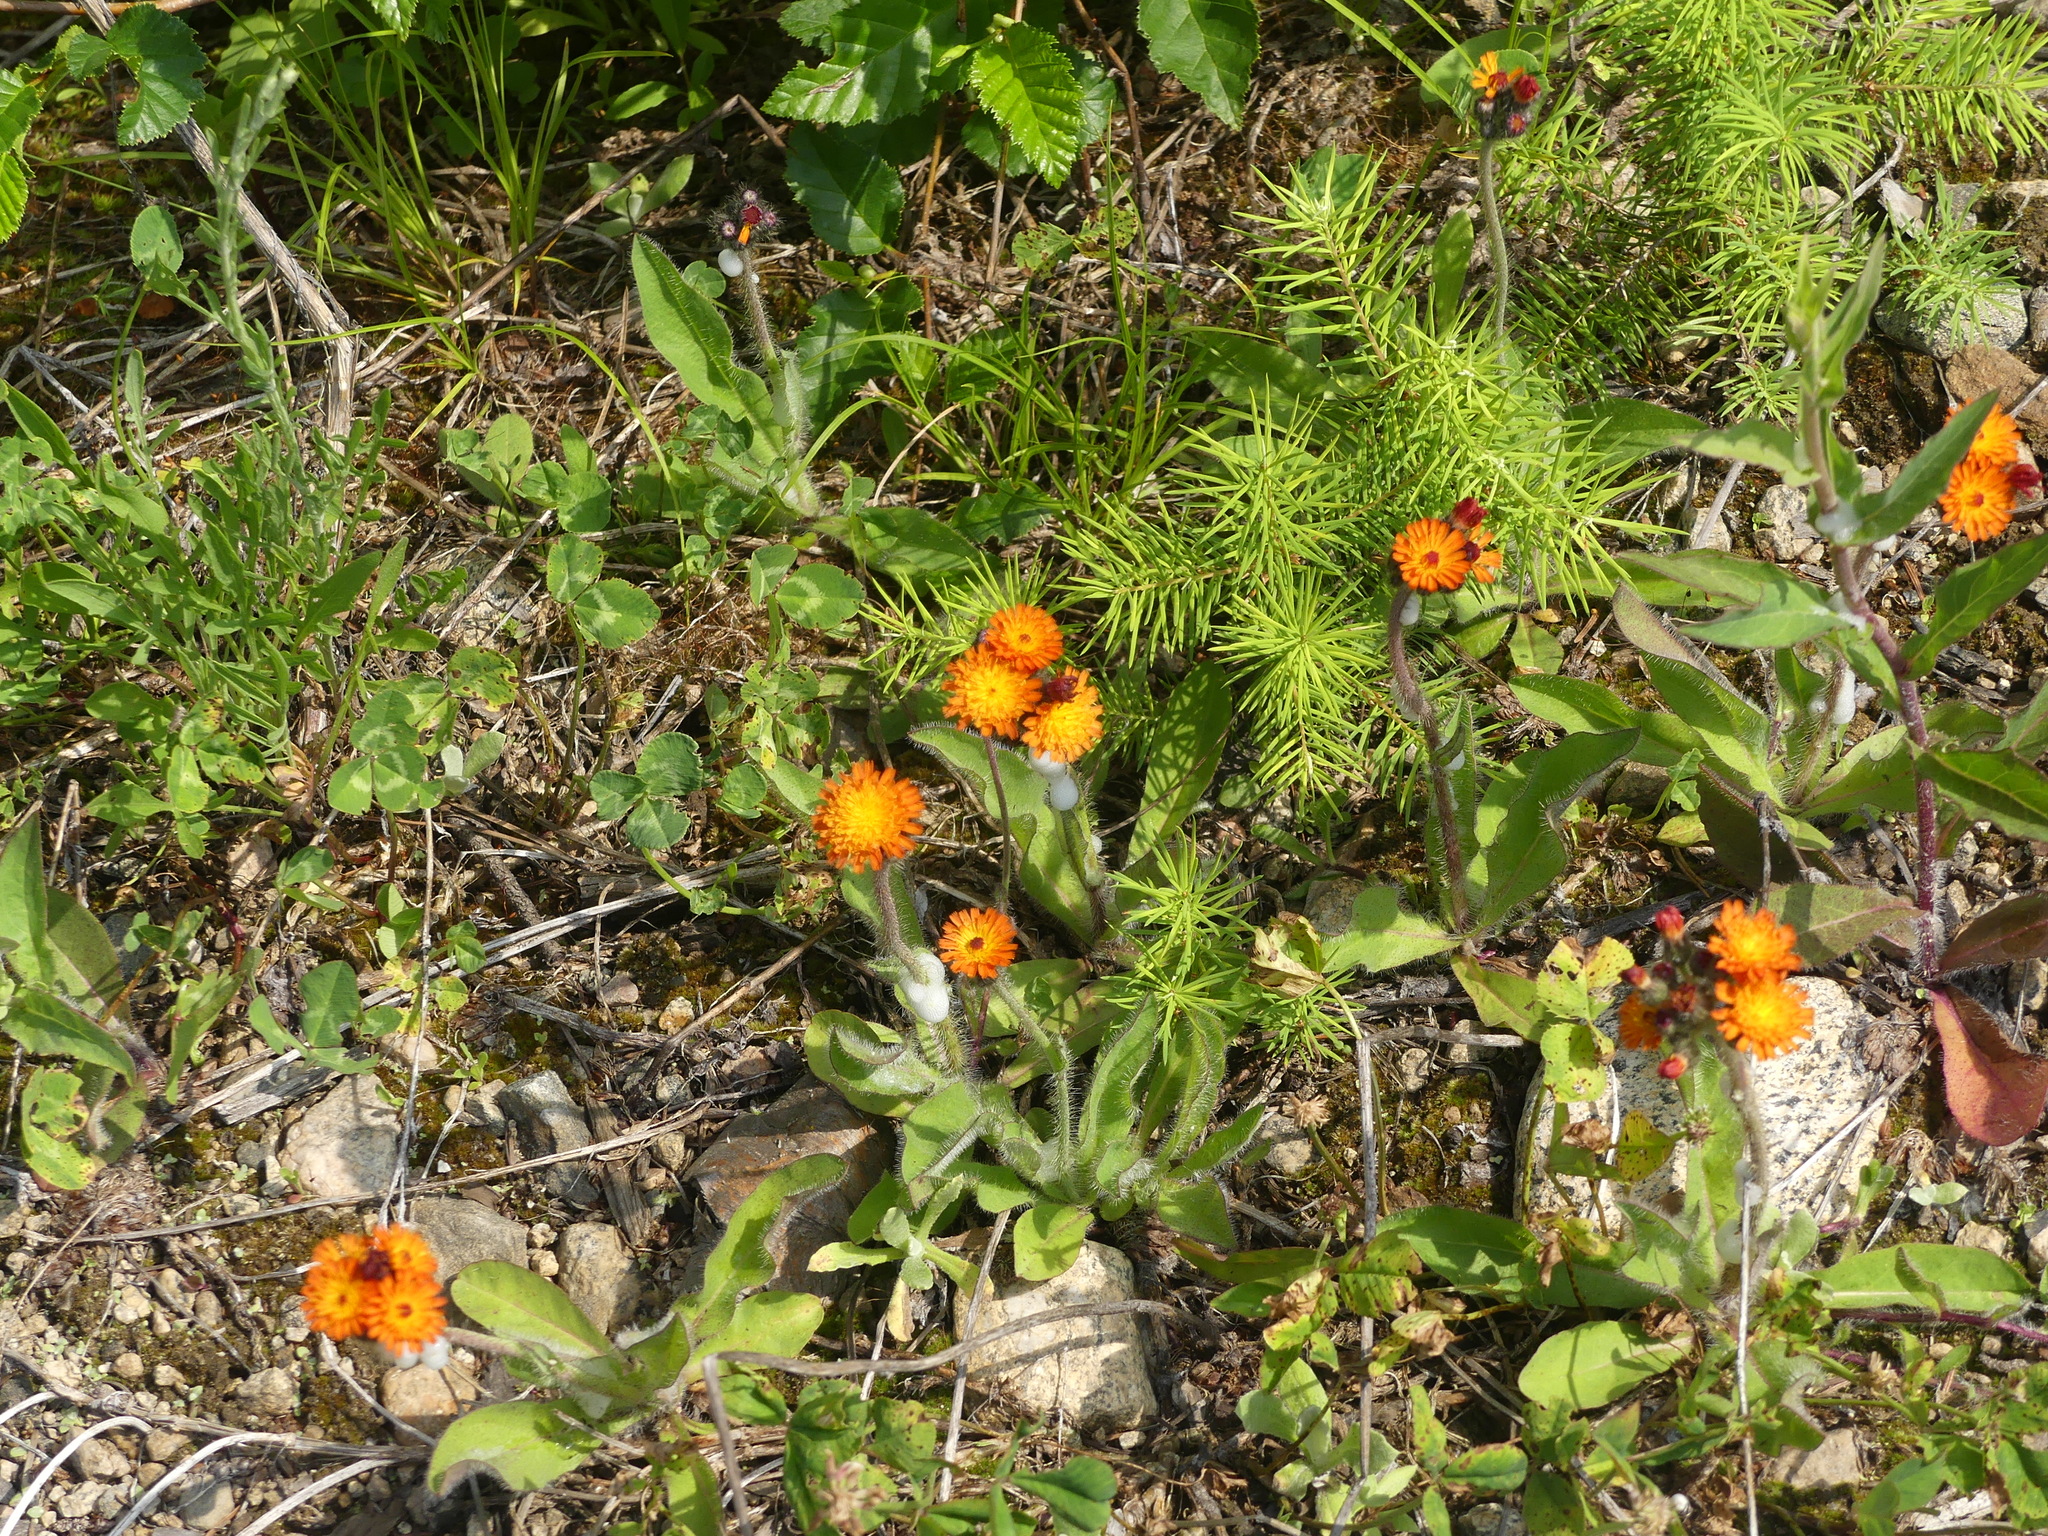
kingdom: Plantae
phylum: Tracheophyta
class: Magnoliopsida
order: Asterales
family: Asteraceae
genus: Pilosella
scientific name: Pilosella aurantiaca
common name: Fox-and-cubs
